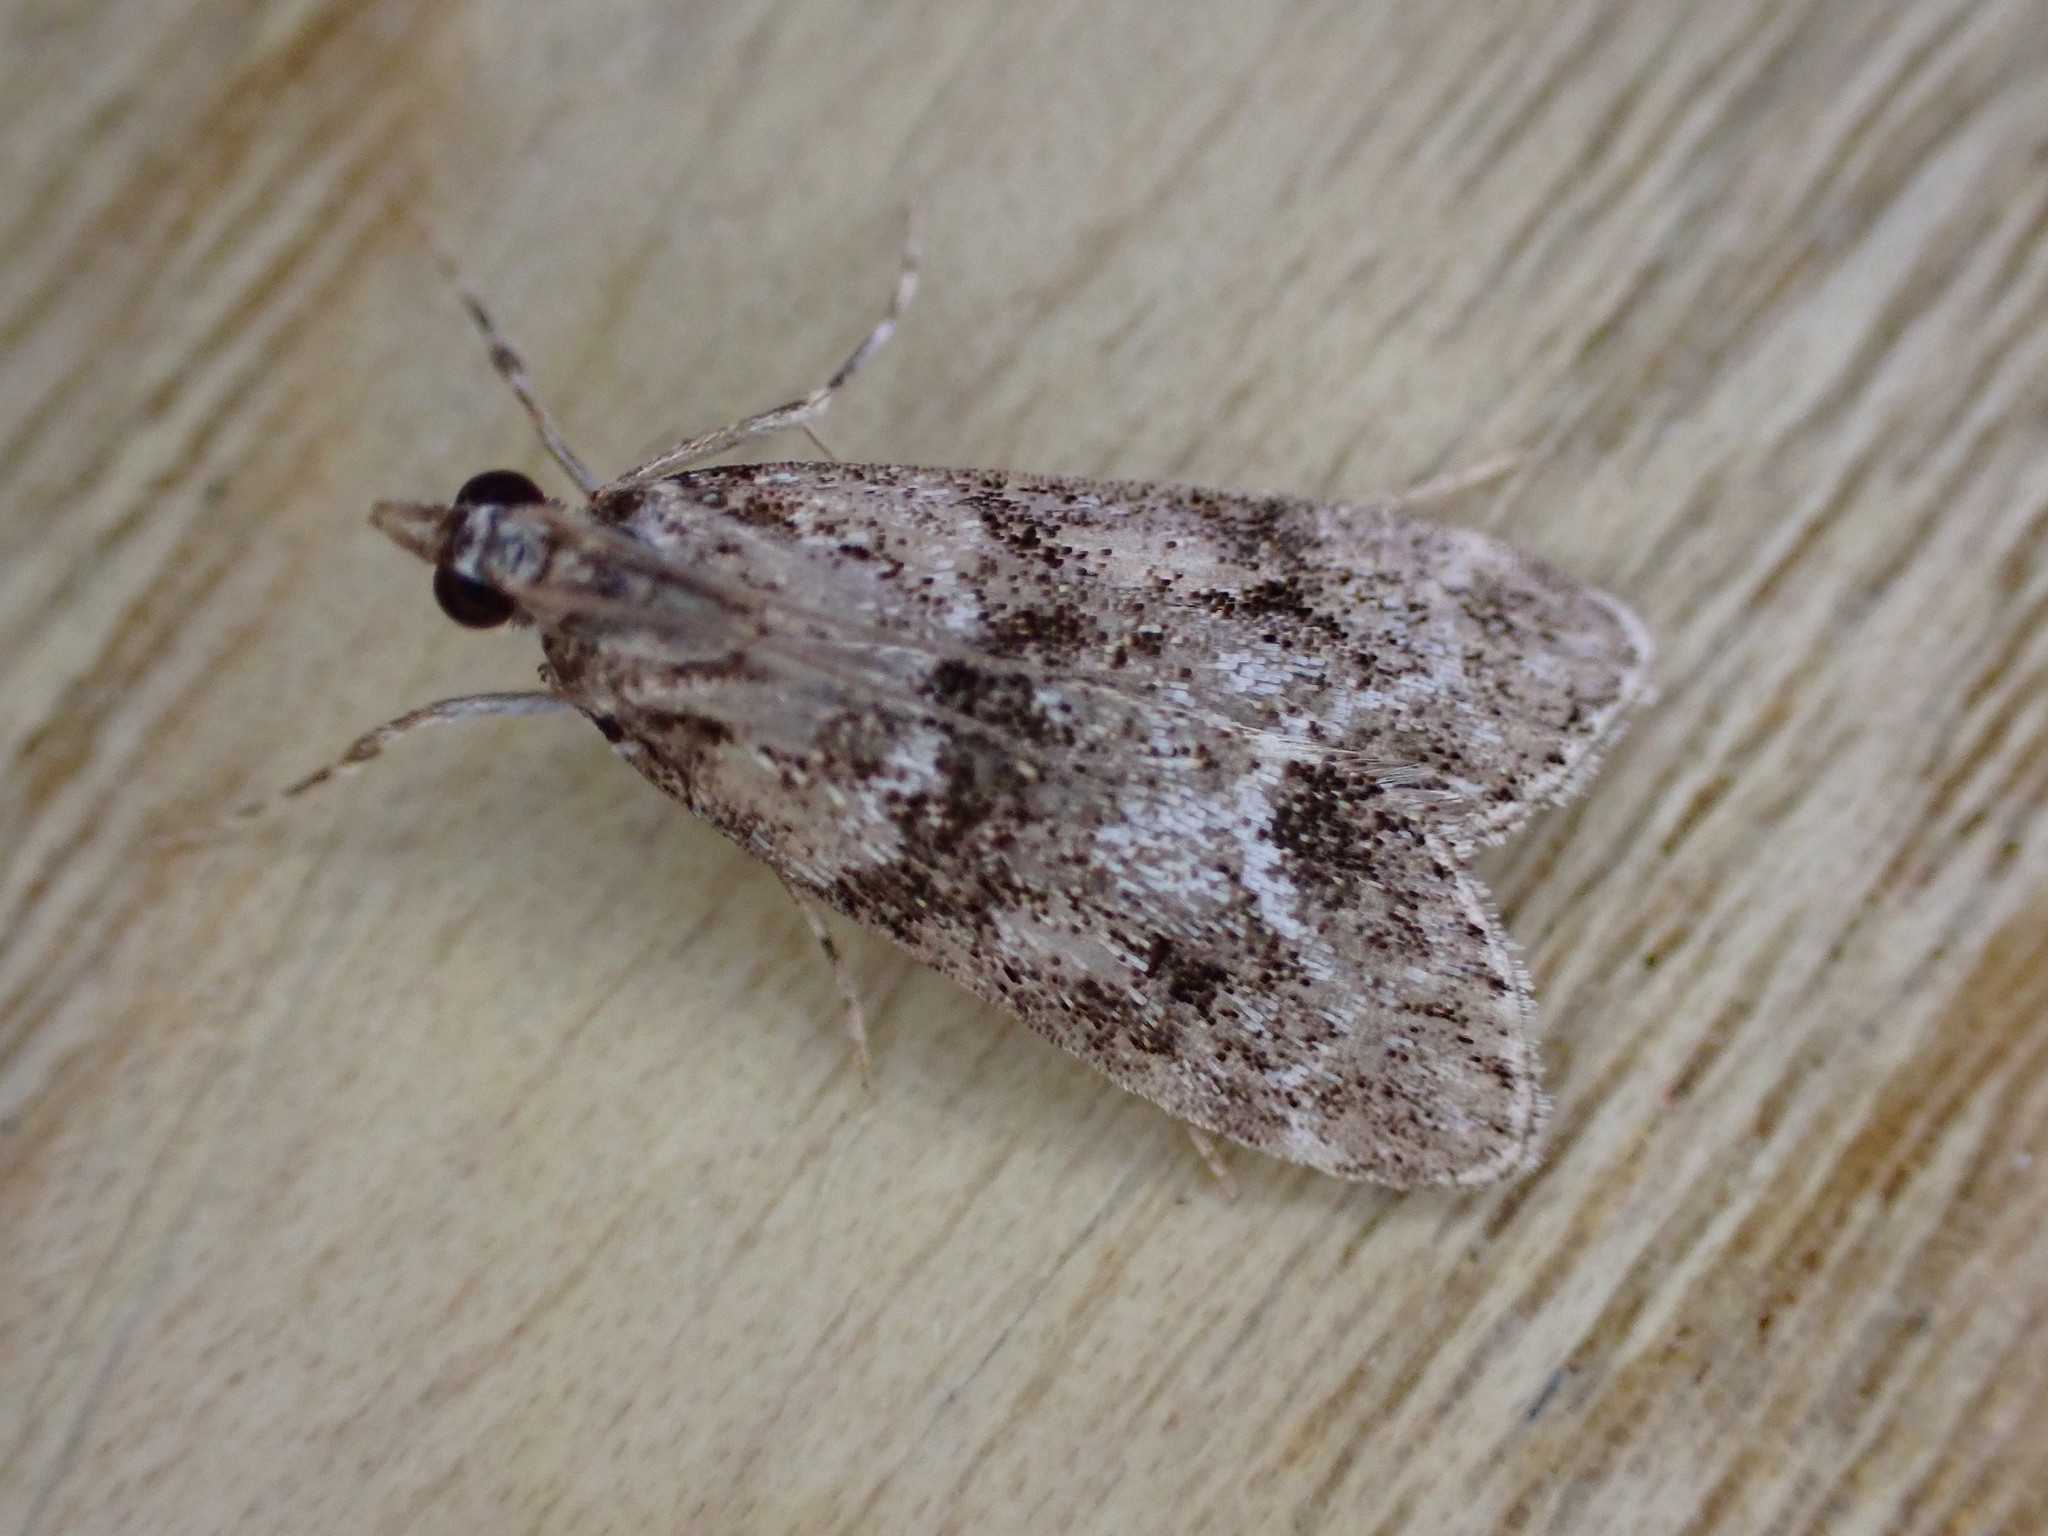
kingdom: Animalia
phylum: Arthropoda
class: Insecta
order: Lepidoptera
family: Crambidae
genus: Eudonia
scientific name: Eudonia mercurella
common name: Small grey
